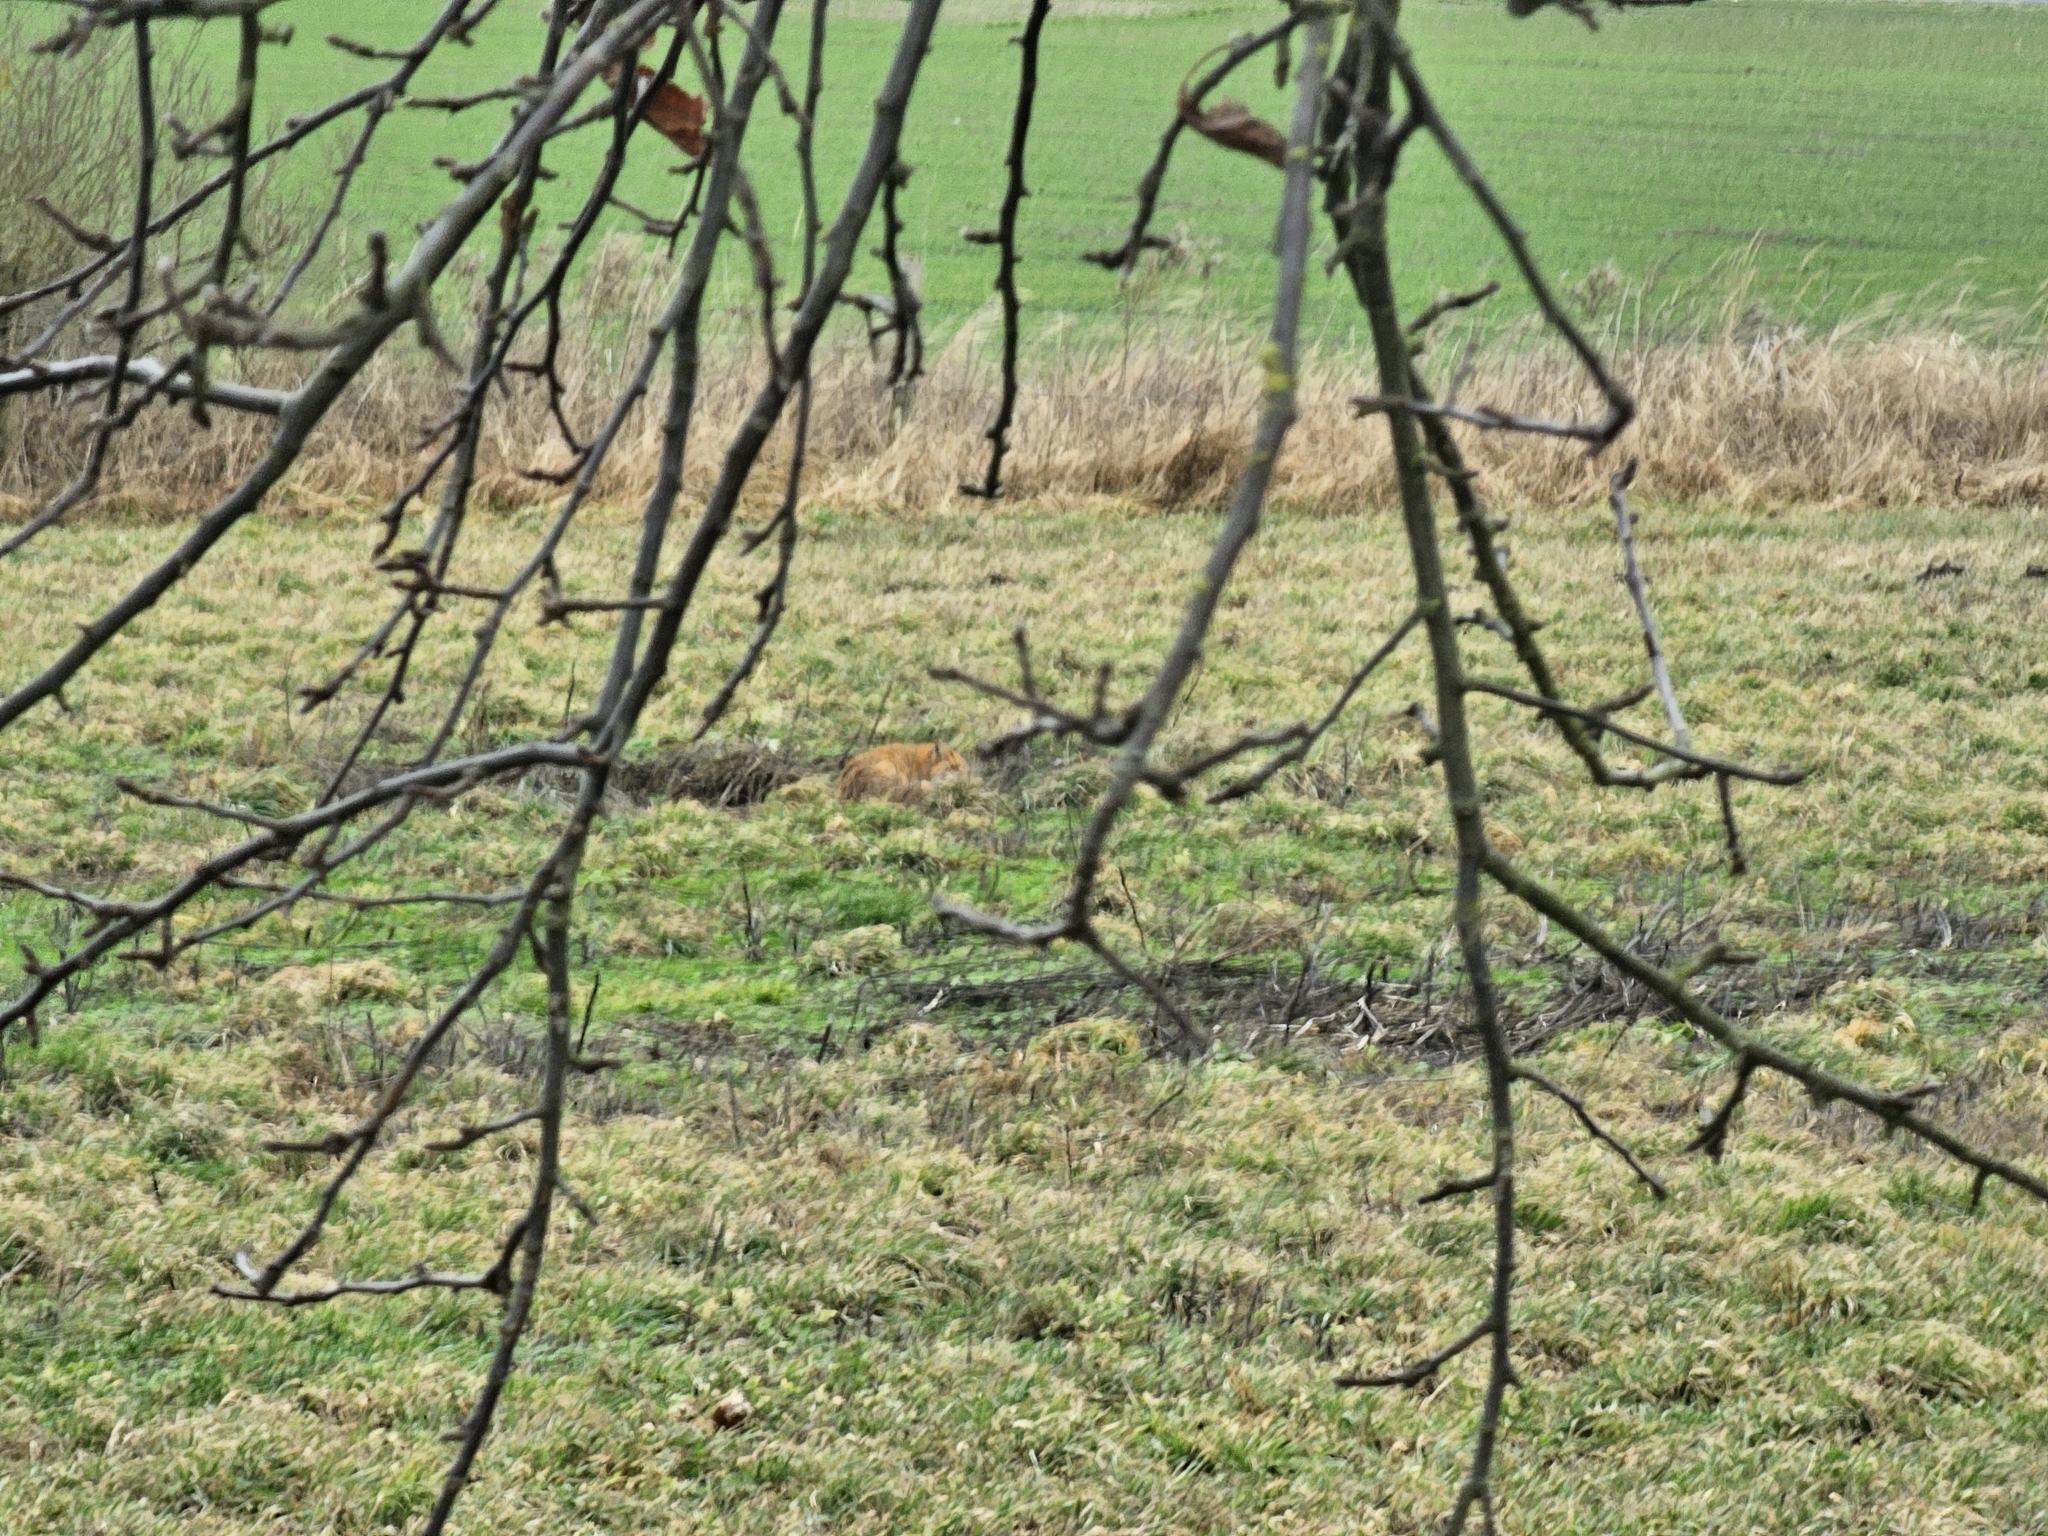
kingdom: Animalia
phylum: Chordata
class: Mammalia
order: Carnivora
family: Canidae
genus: Vulpes
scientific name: Vulpes vulpes
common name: Red fox
